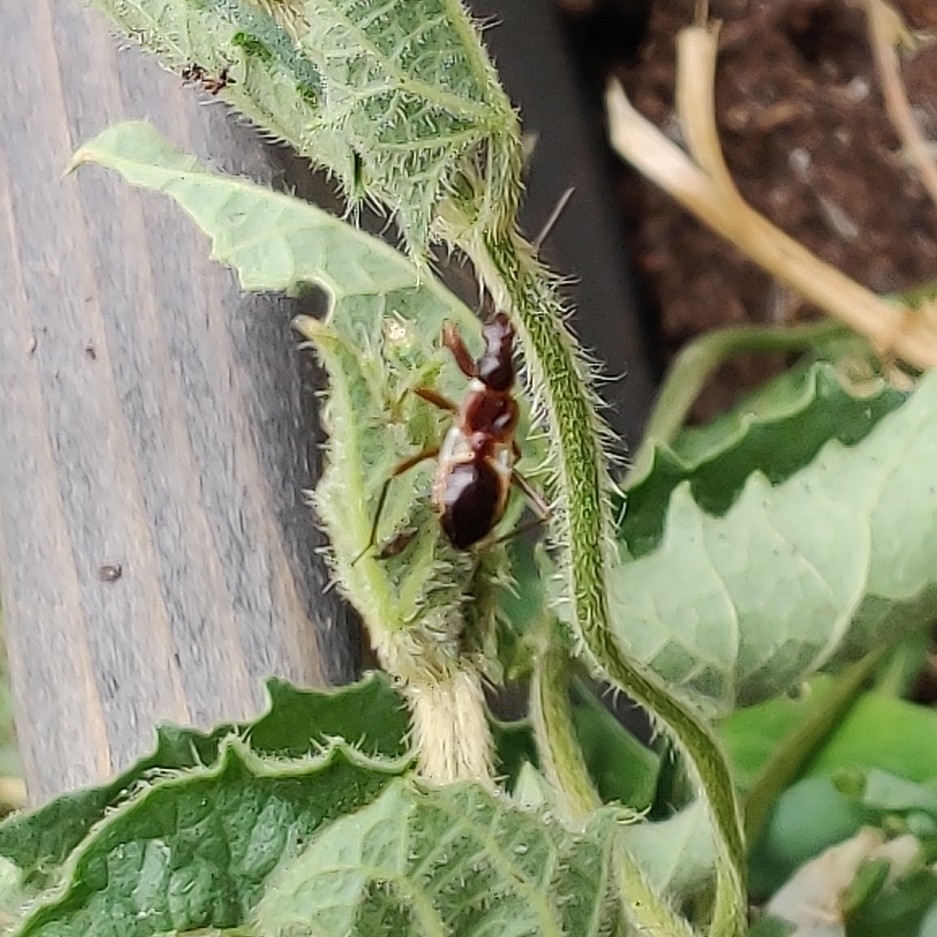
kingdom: Animalia
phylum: Arthropoda
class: Insecta
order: Hemiptera
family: Nabidae
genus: Himacerus
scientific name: Himacerus mirmicoides
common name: Ant damsel bug
